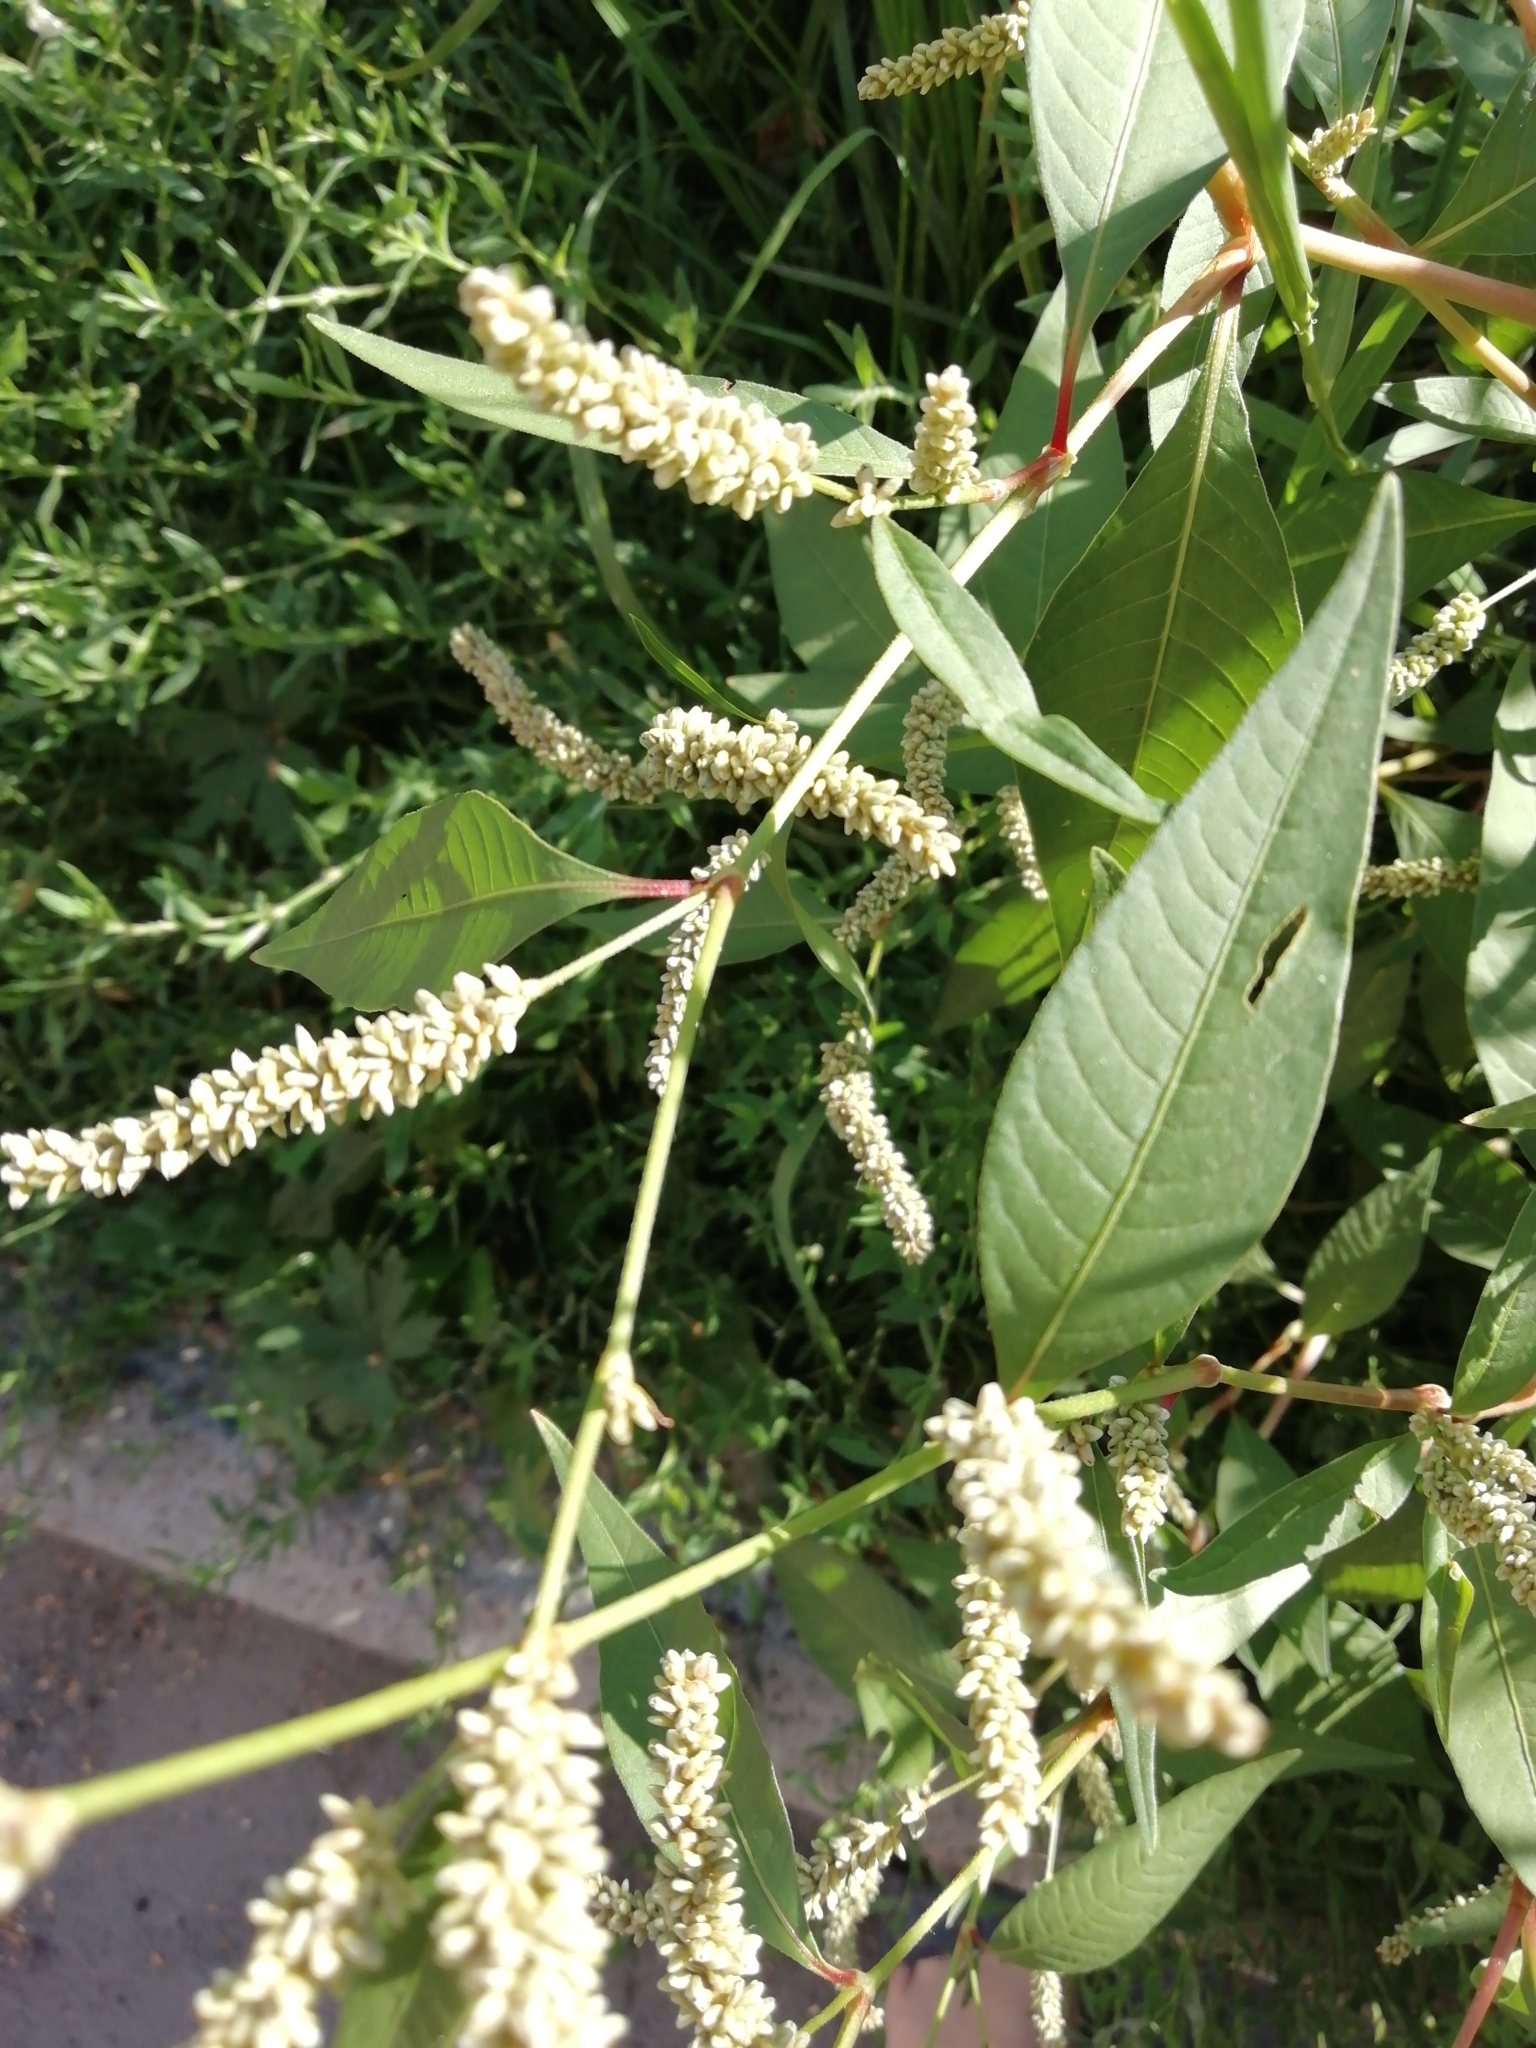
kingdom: Plantae
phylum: Tracheophyta
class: Magnoliopsida
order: Caryophyllales
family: Polygonaceae
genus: Persicaria
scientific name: Persicaria lapathifolia
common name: Curlytop knotweed
